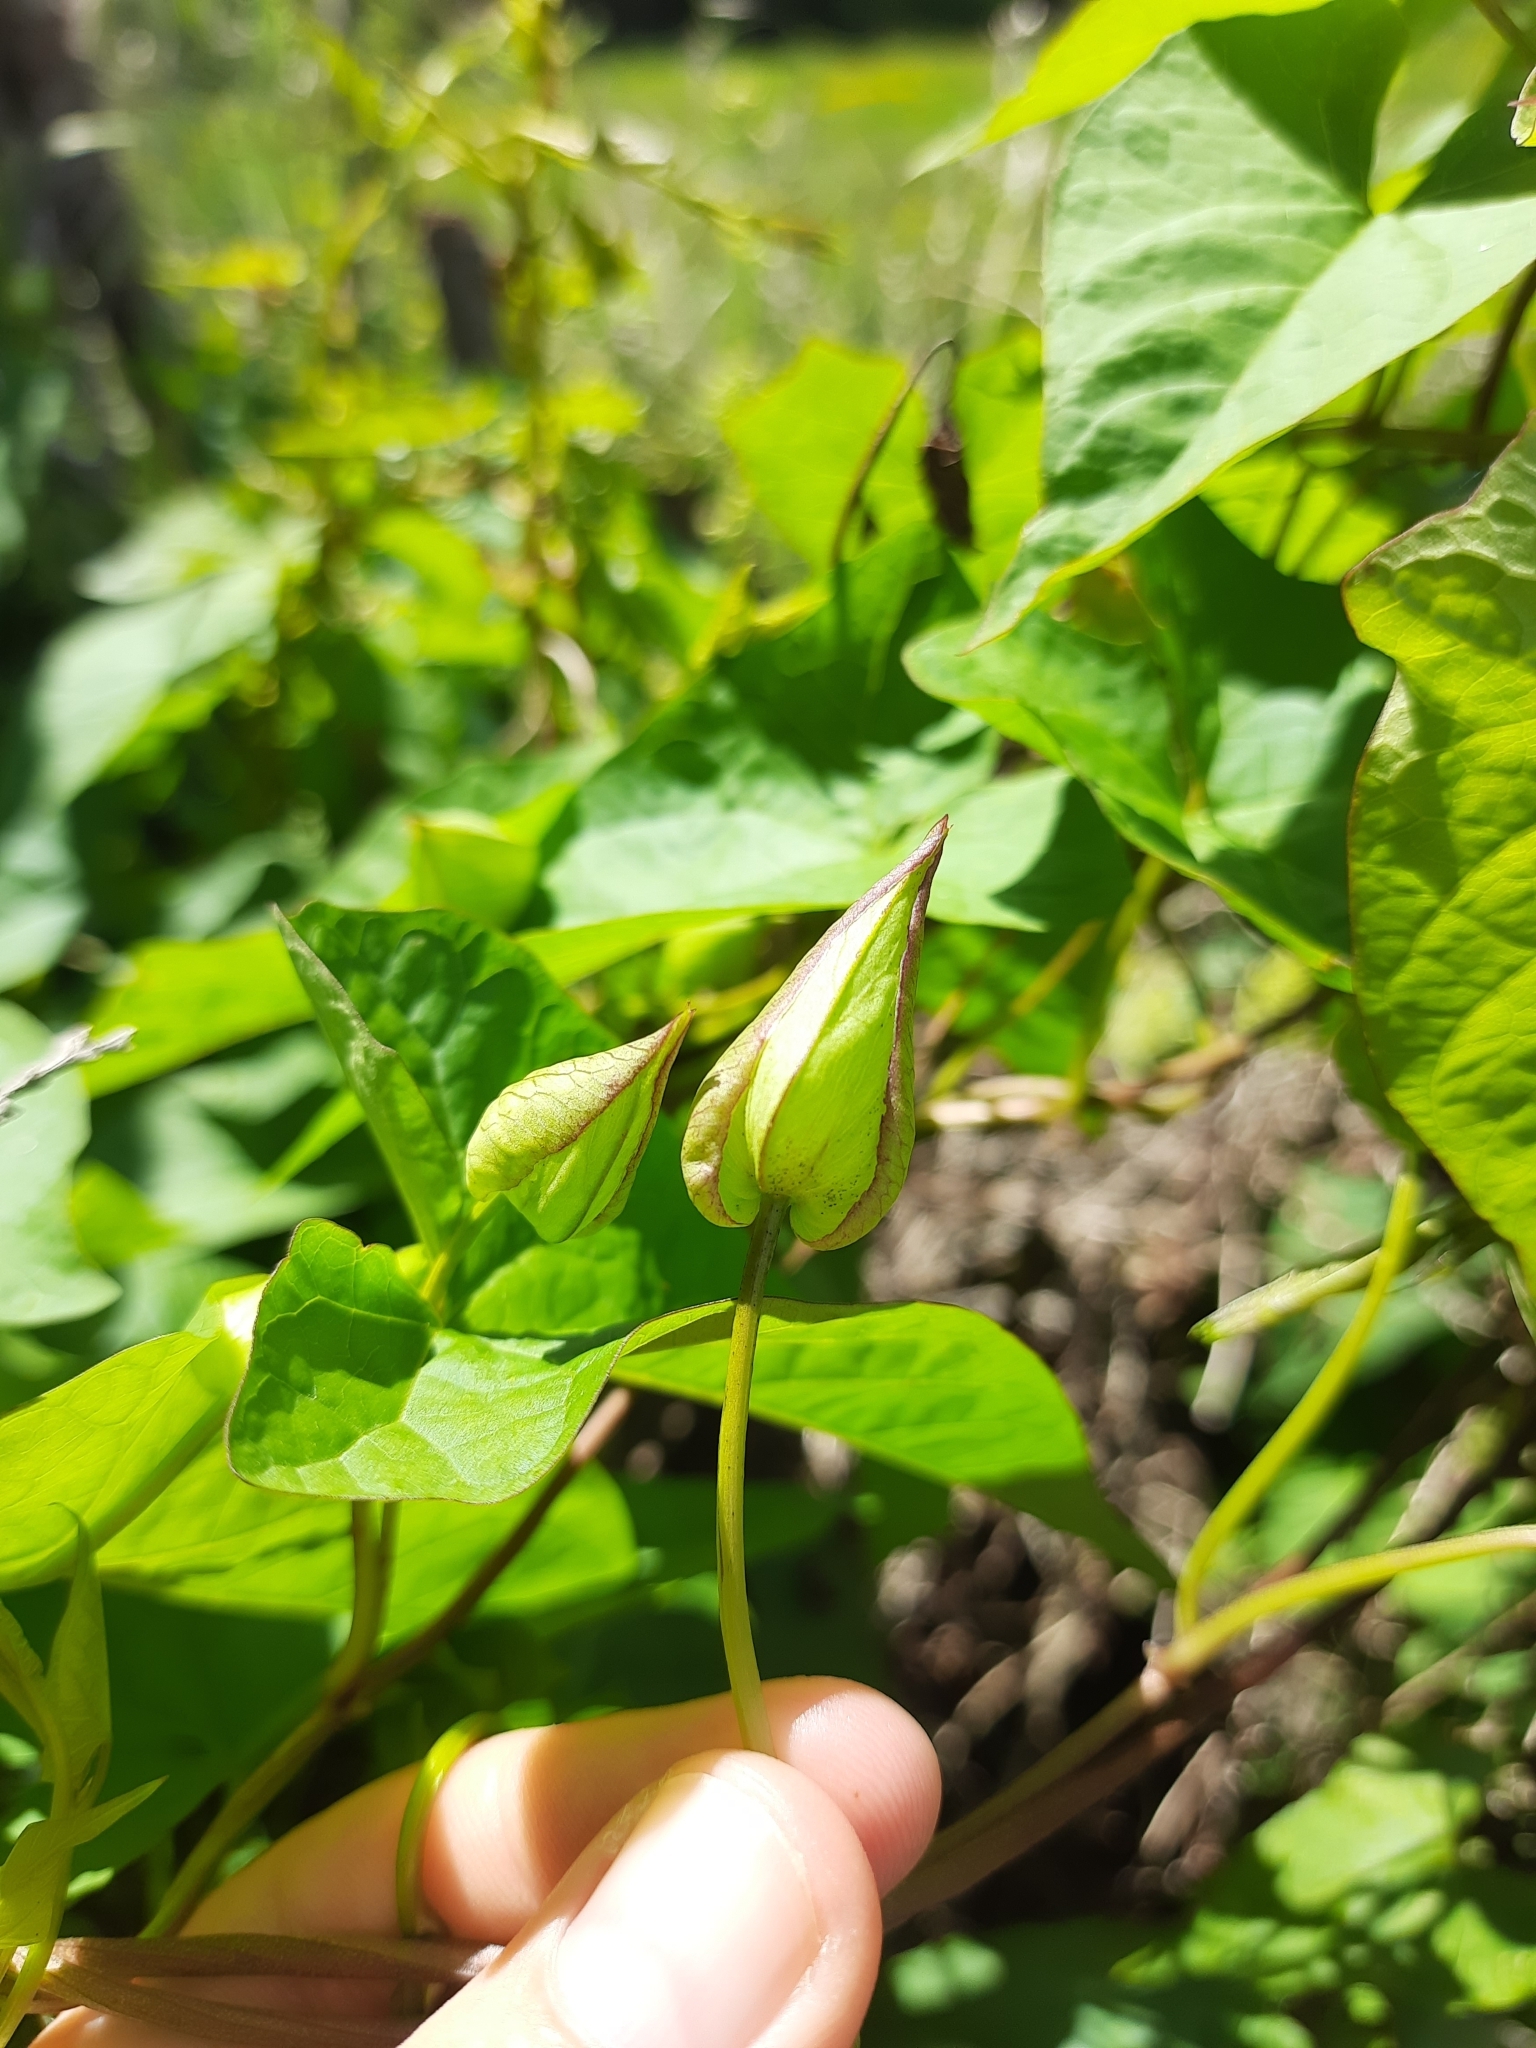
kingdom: Plantae
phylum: Tracheophyta
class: Magnoliopsida
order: Solanales
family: Convolvulaceae
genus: Calystegia
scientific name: Calystegia silvatica
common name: Large bindweed
